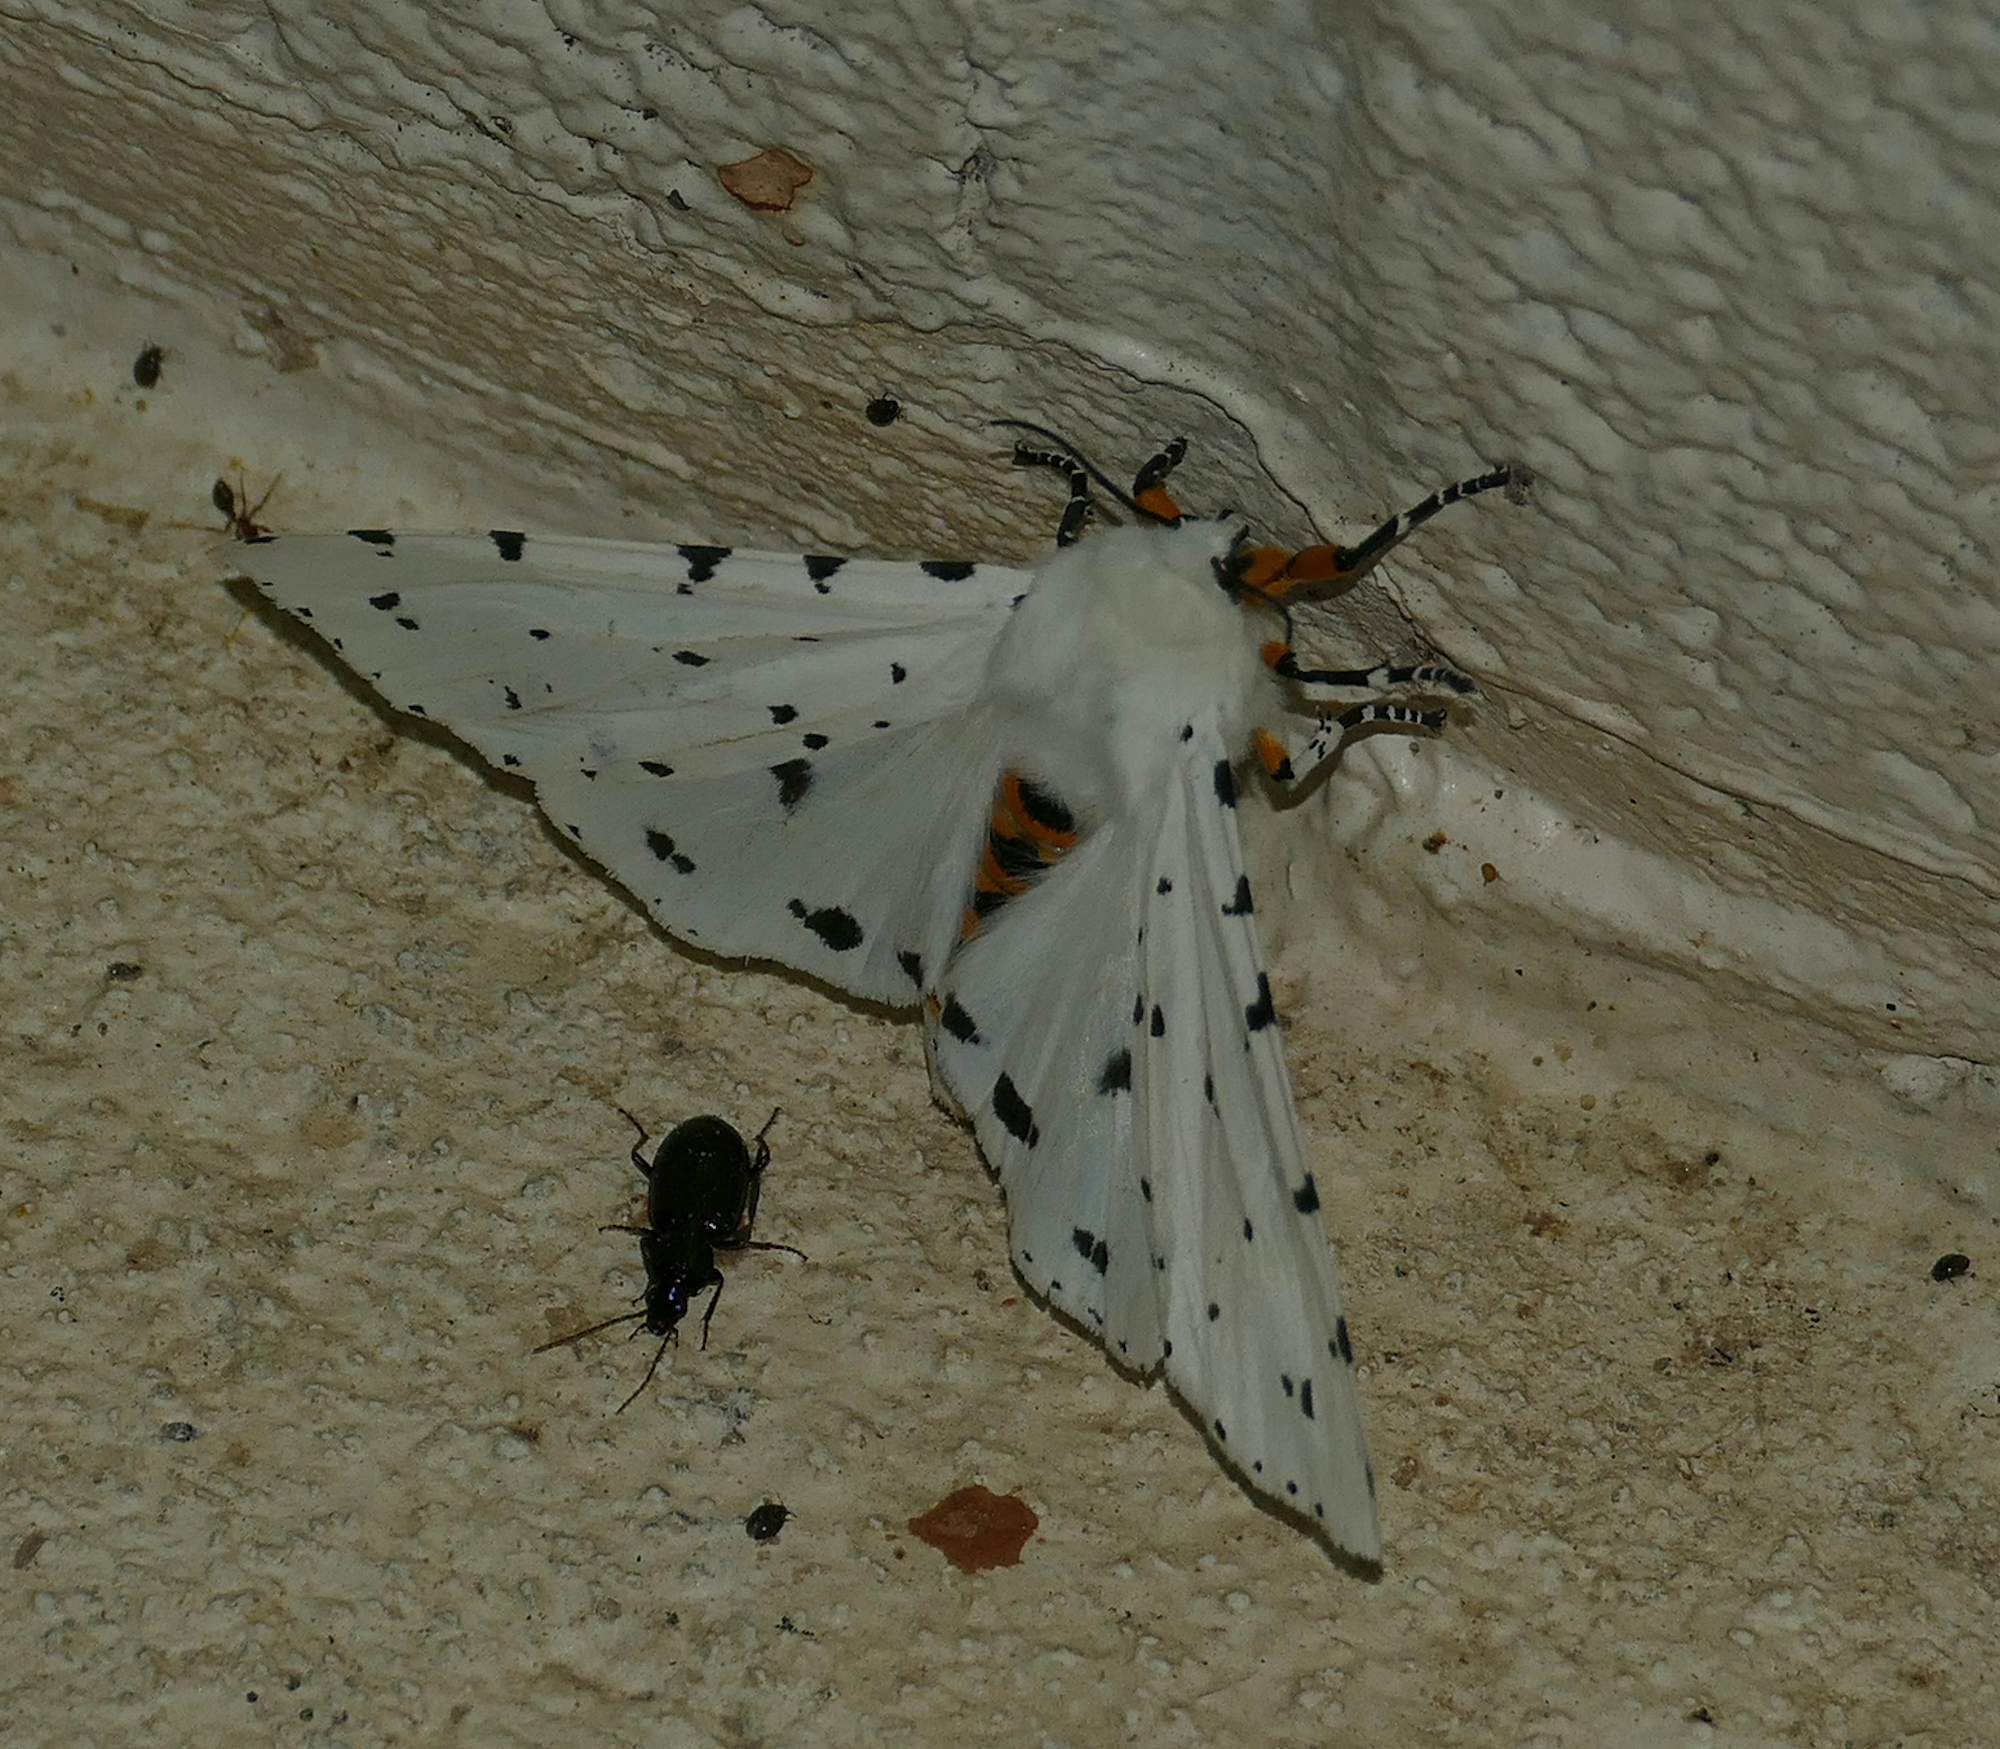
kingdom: Animalia
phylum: Arthropoda
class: Insecta
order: Lepidoptera
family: Erebidae
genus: Estigmene
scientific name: Estigmene acrea
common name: Salt marsh moth
